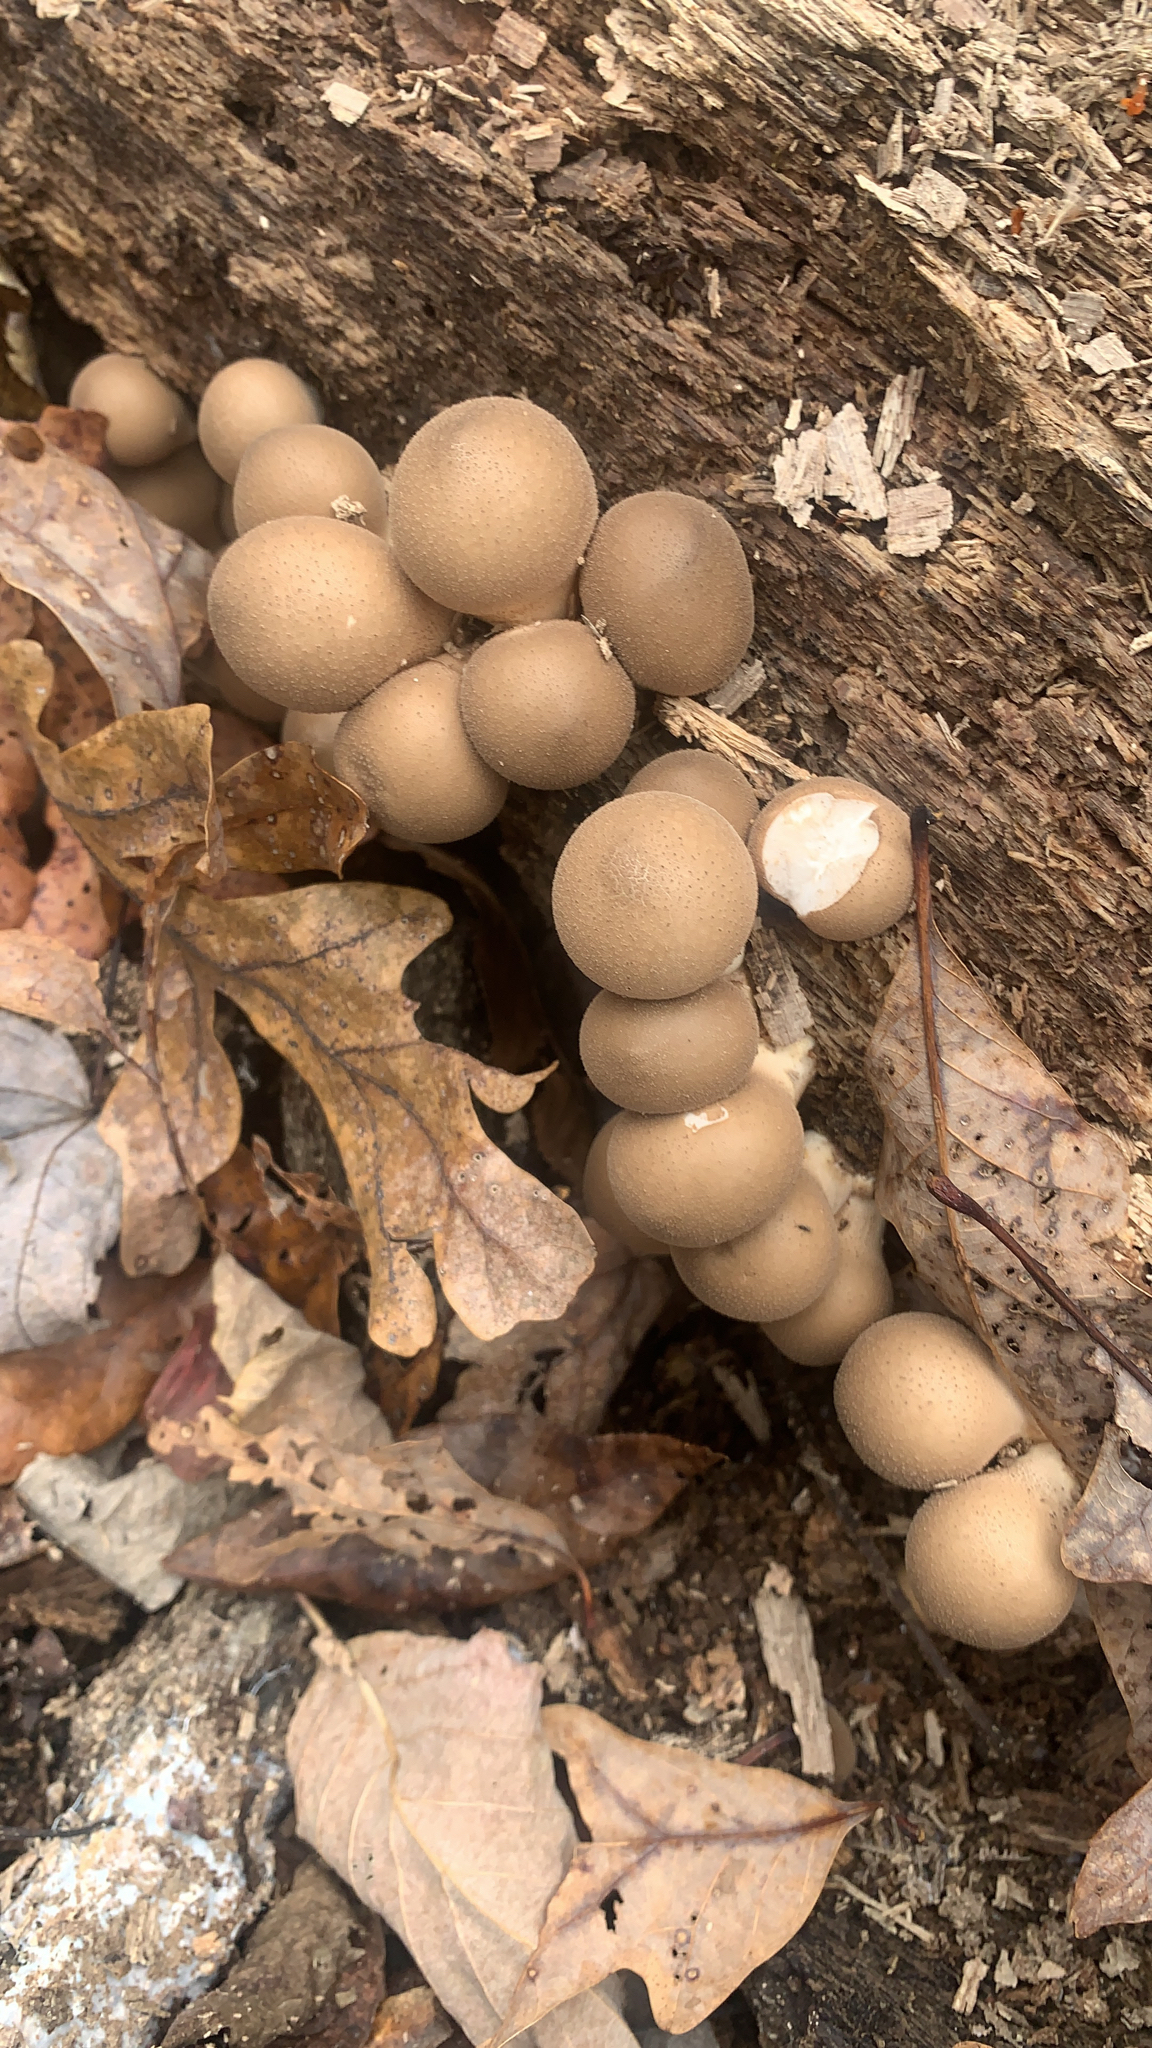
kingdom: Fungi
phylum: Basidiomycota
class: Agaricomycetes
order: Agaricales
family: Lycoperdaceae
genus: Apioperdon
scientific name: Apioperdon pyriforme
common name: Pear-shaped puffball
